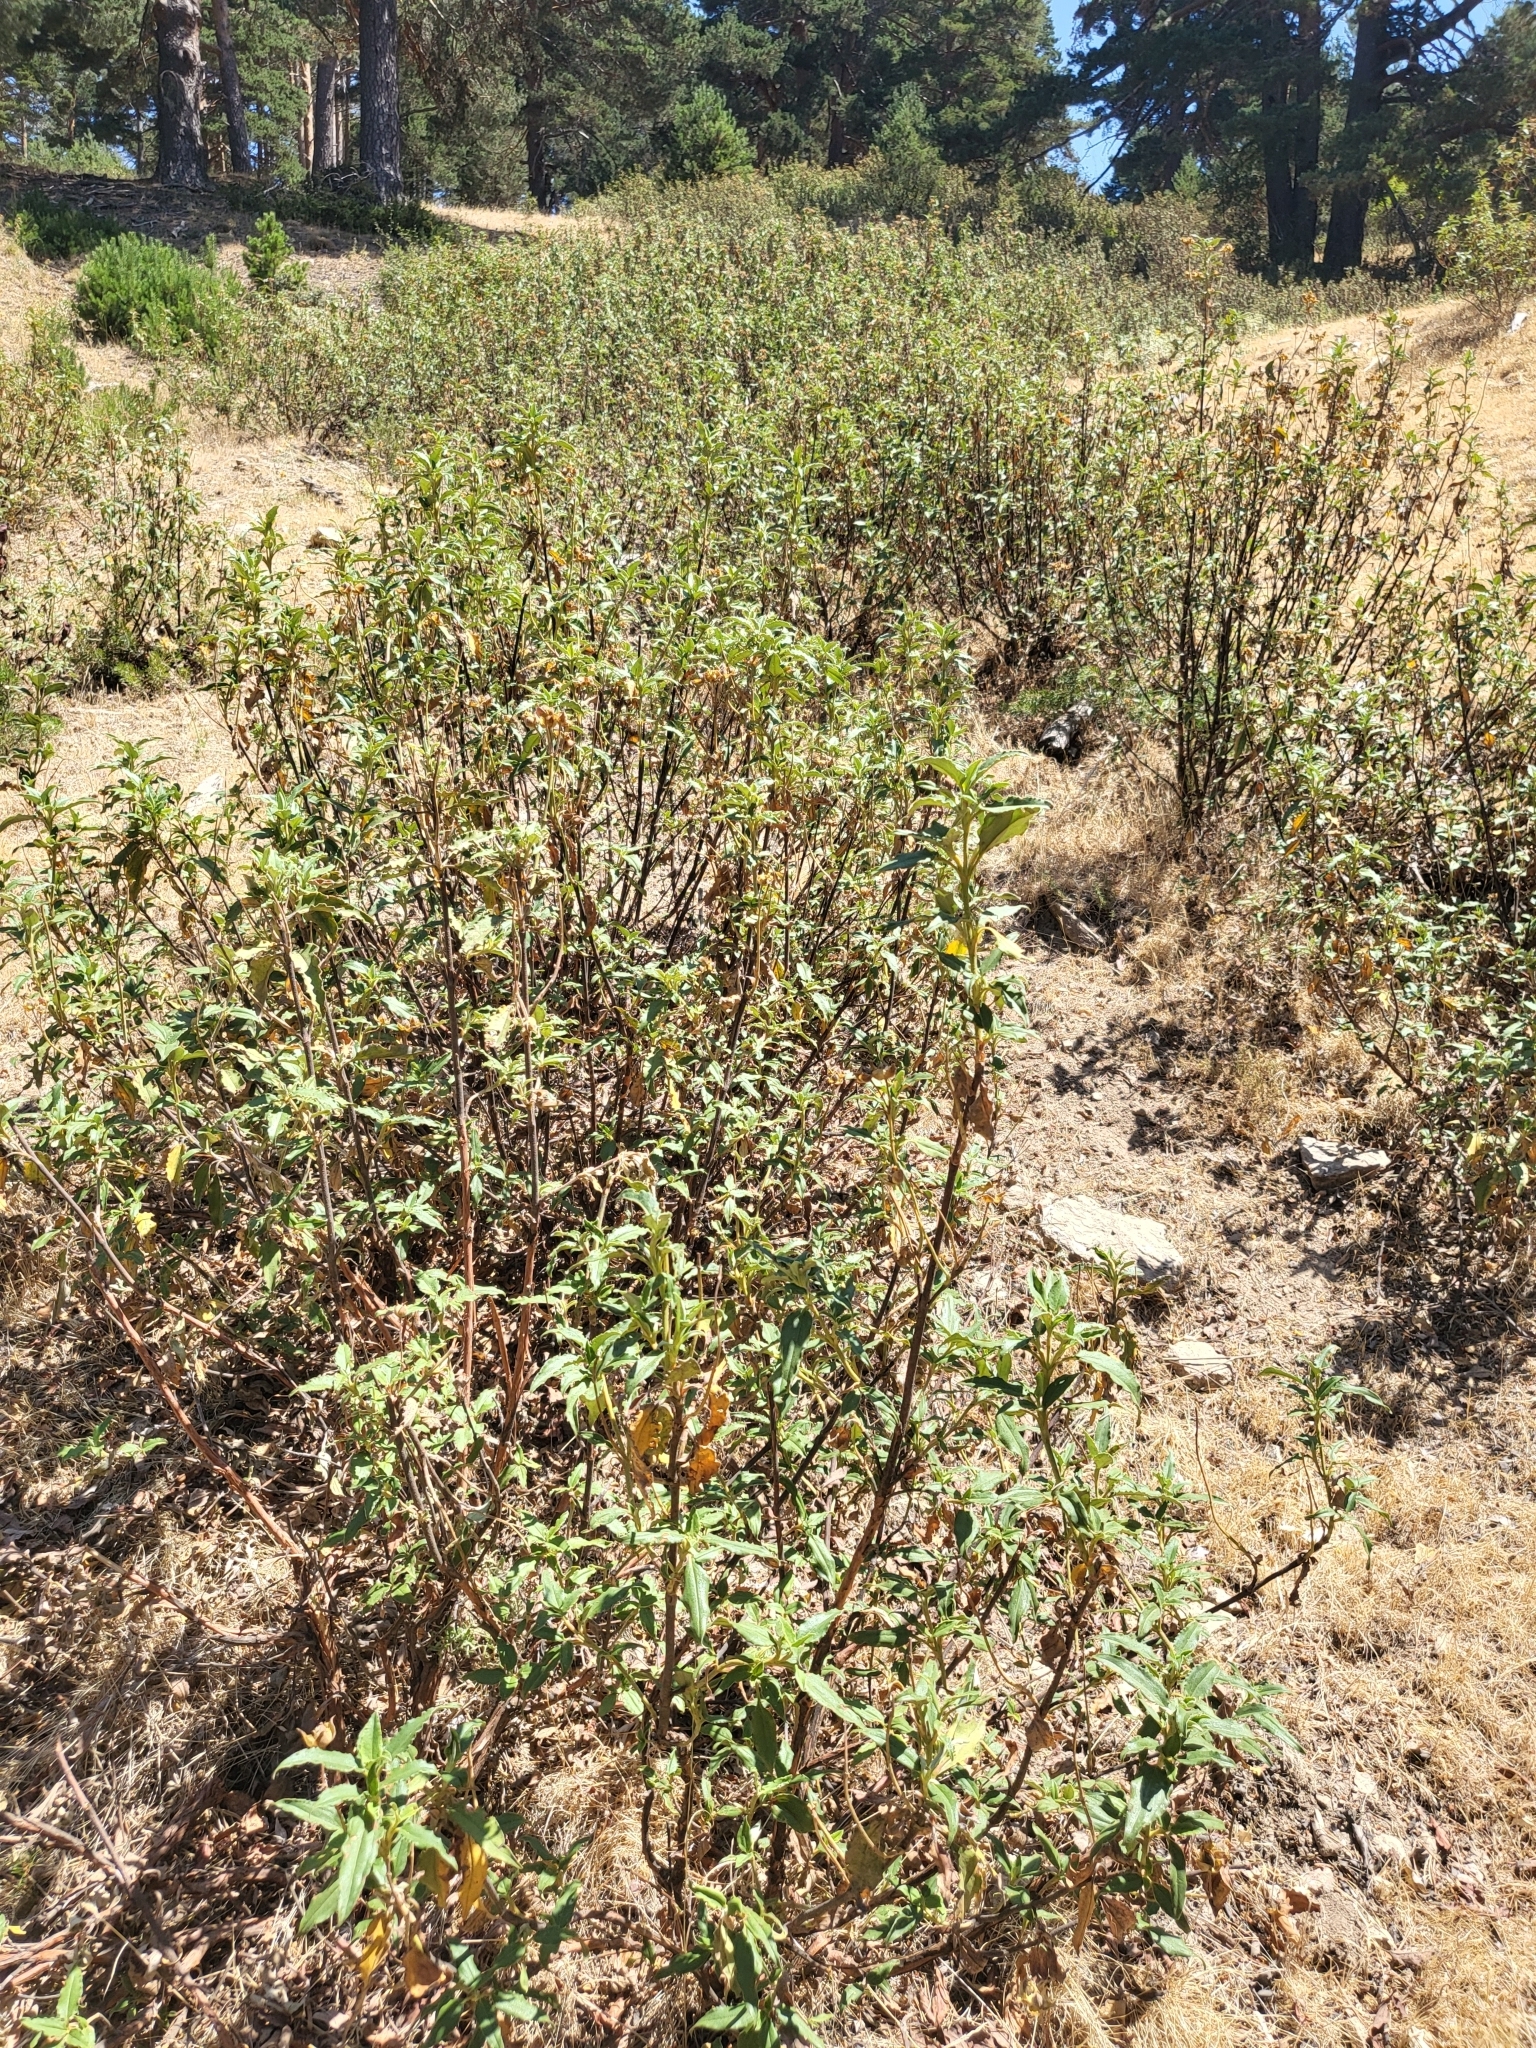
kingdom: Plantae
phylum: Tracheophyta
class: Magnoliopsida
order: Malvales
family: Cistaceae
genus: Cistus
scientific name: Cistus laurifolius
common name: Laurel-leaved cistus
